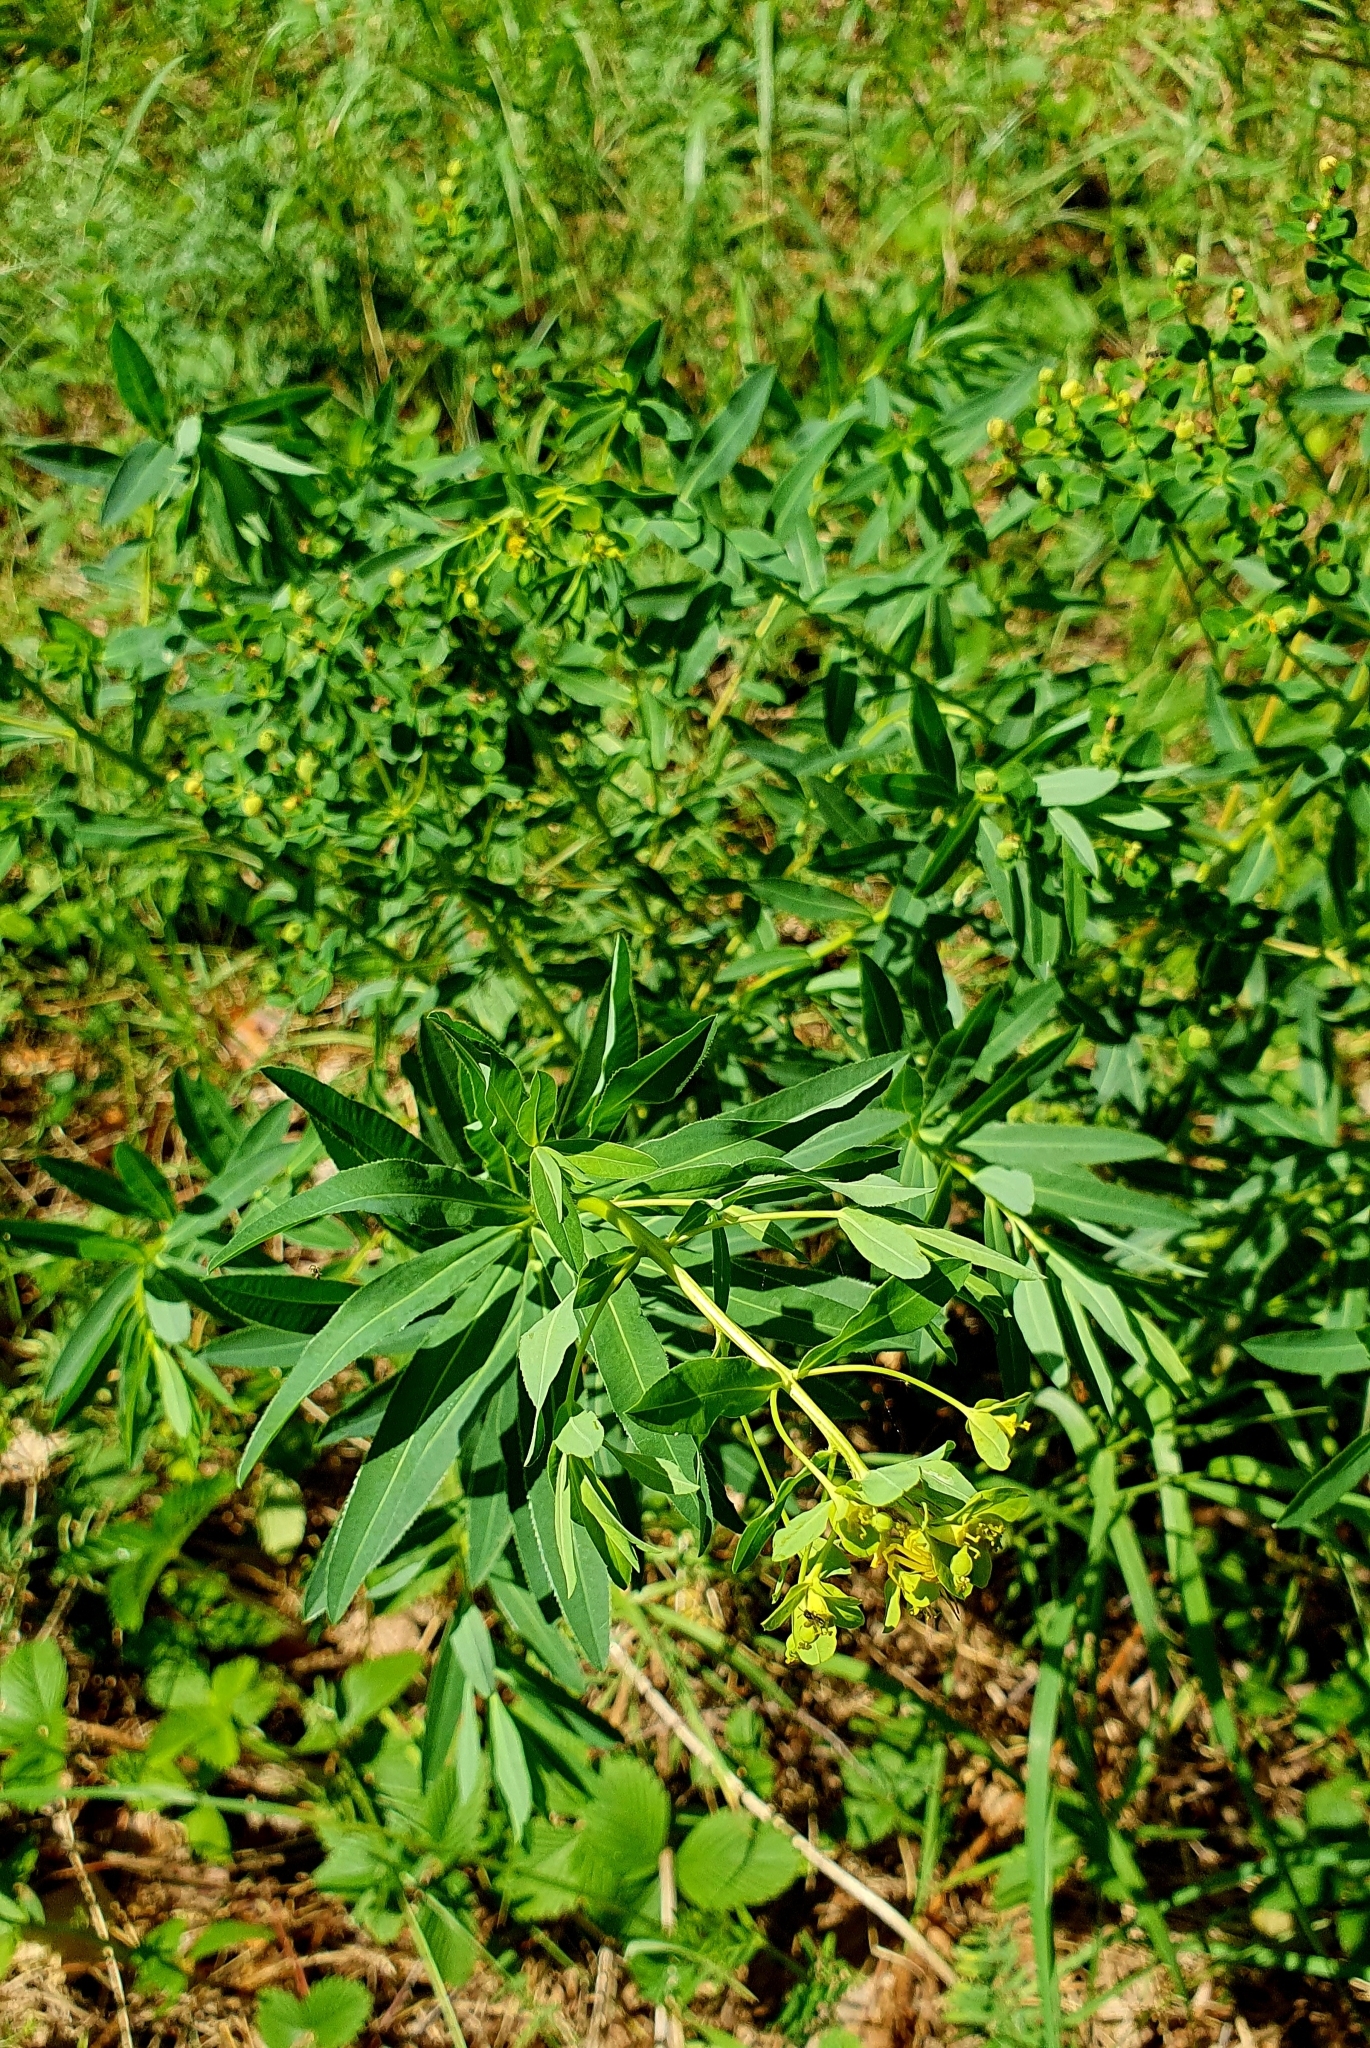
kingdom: Plantae
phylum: Tracheophyta
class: Magnoliopsida
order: Malpighiales
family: Euphorbiaceae
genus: Euphorbia
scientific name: Euphorbia semivillosa
